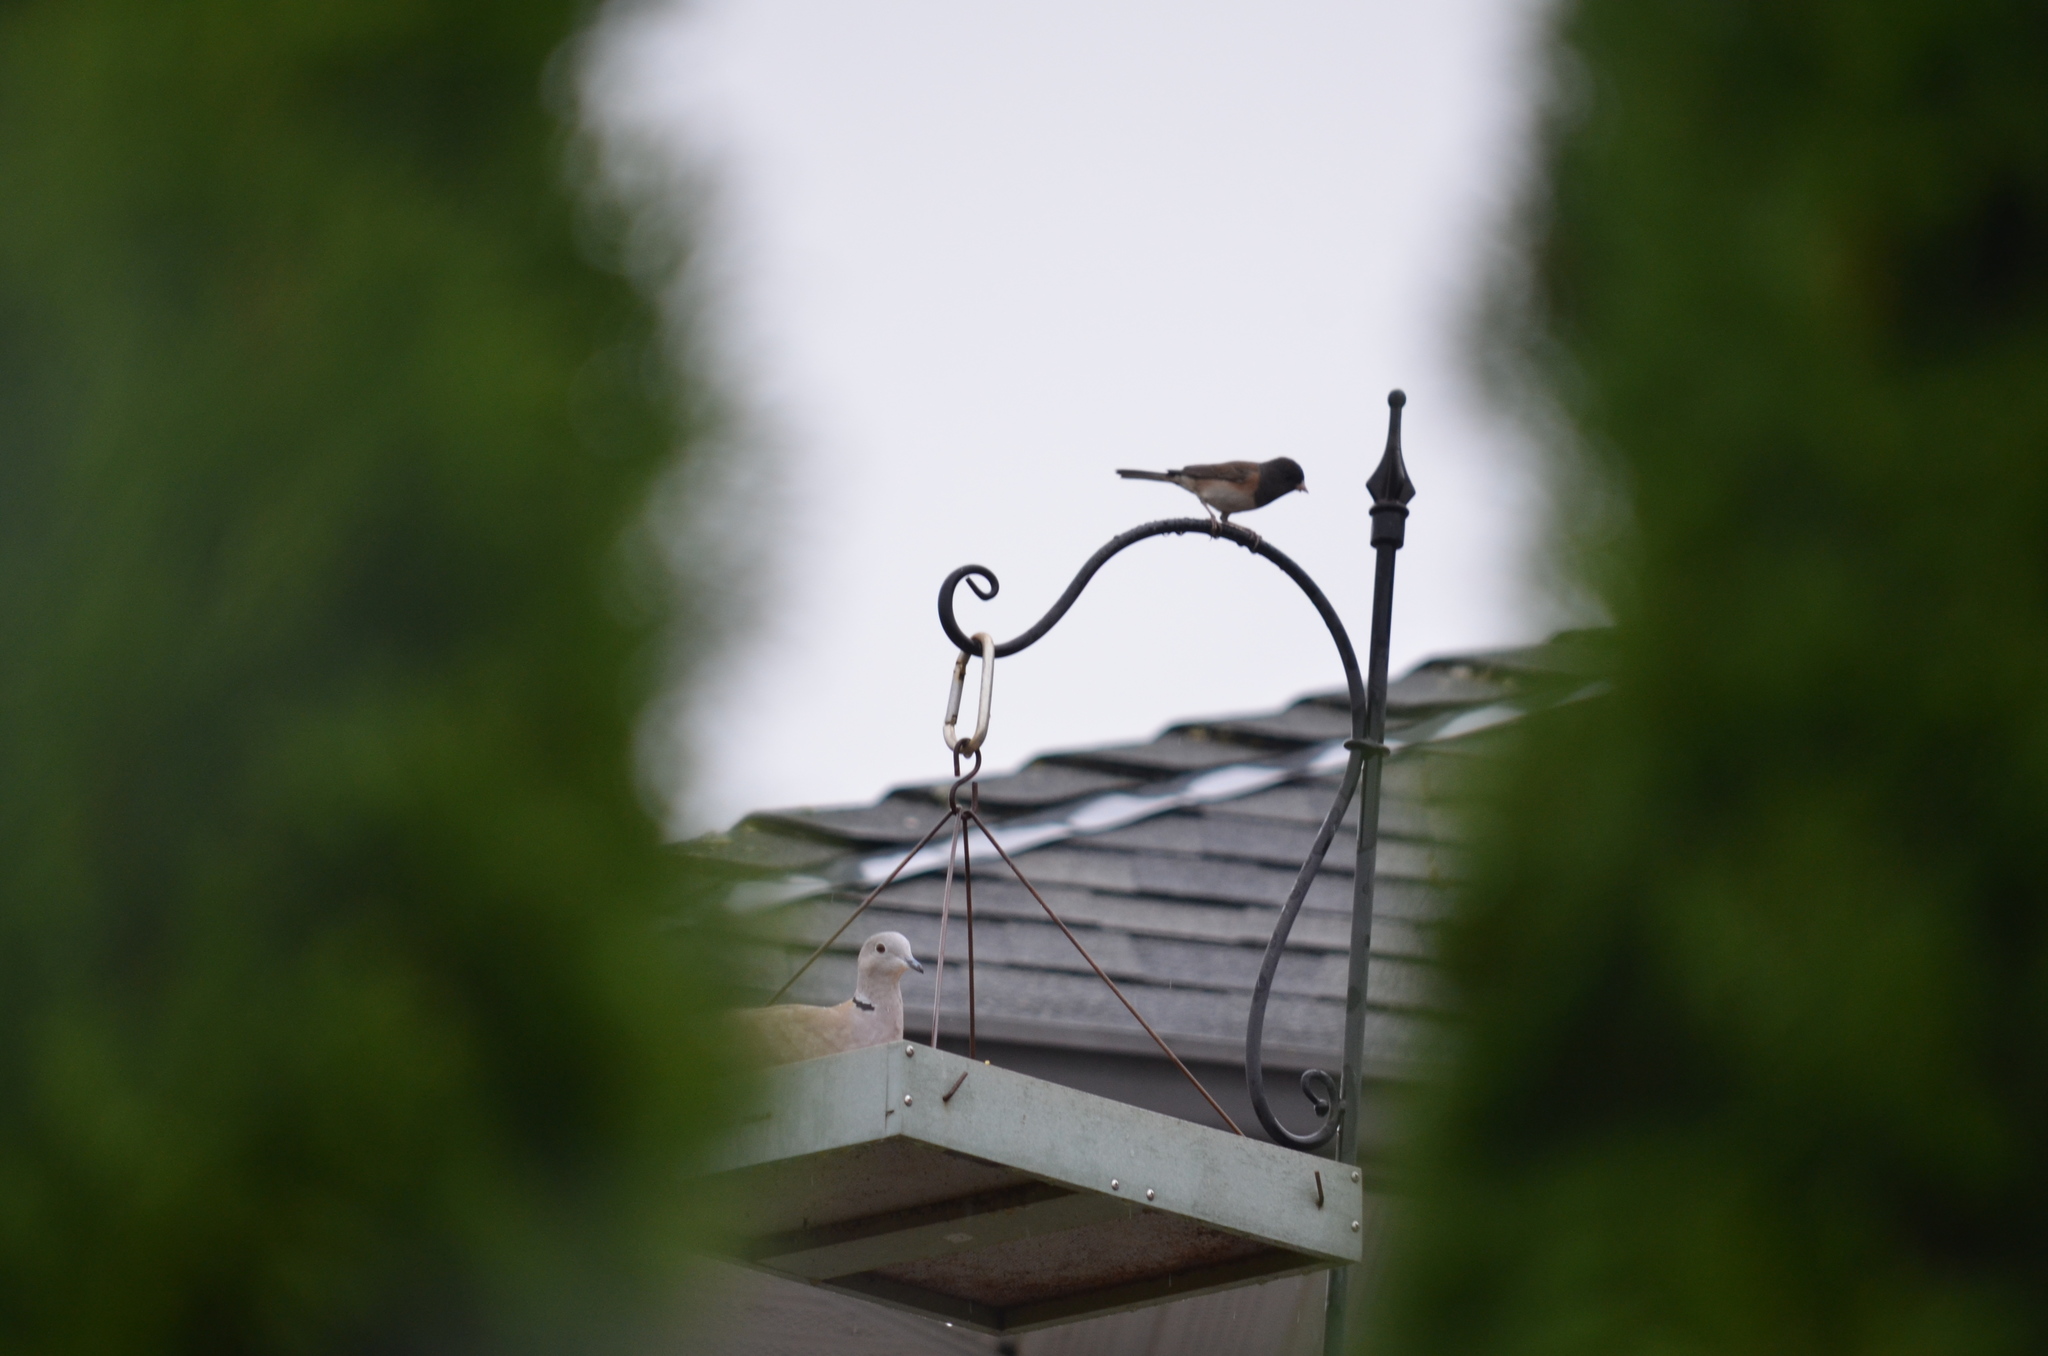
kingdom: Animalia
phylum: Chordata
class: Aves
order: Passeriformes
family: Passerellidae
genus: Junco
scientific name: Junco hyemalis
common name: Dark-eyed junco
